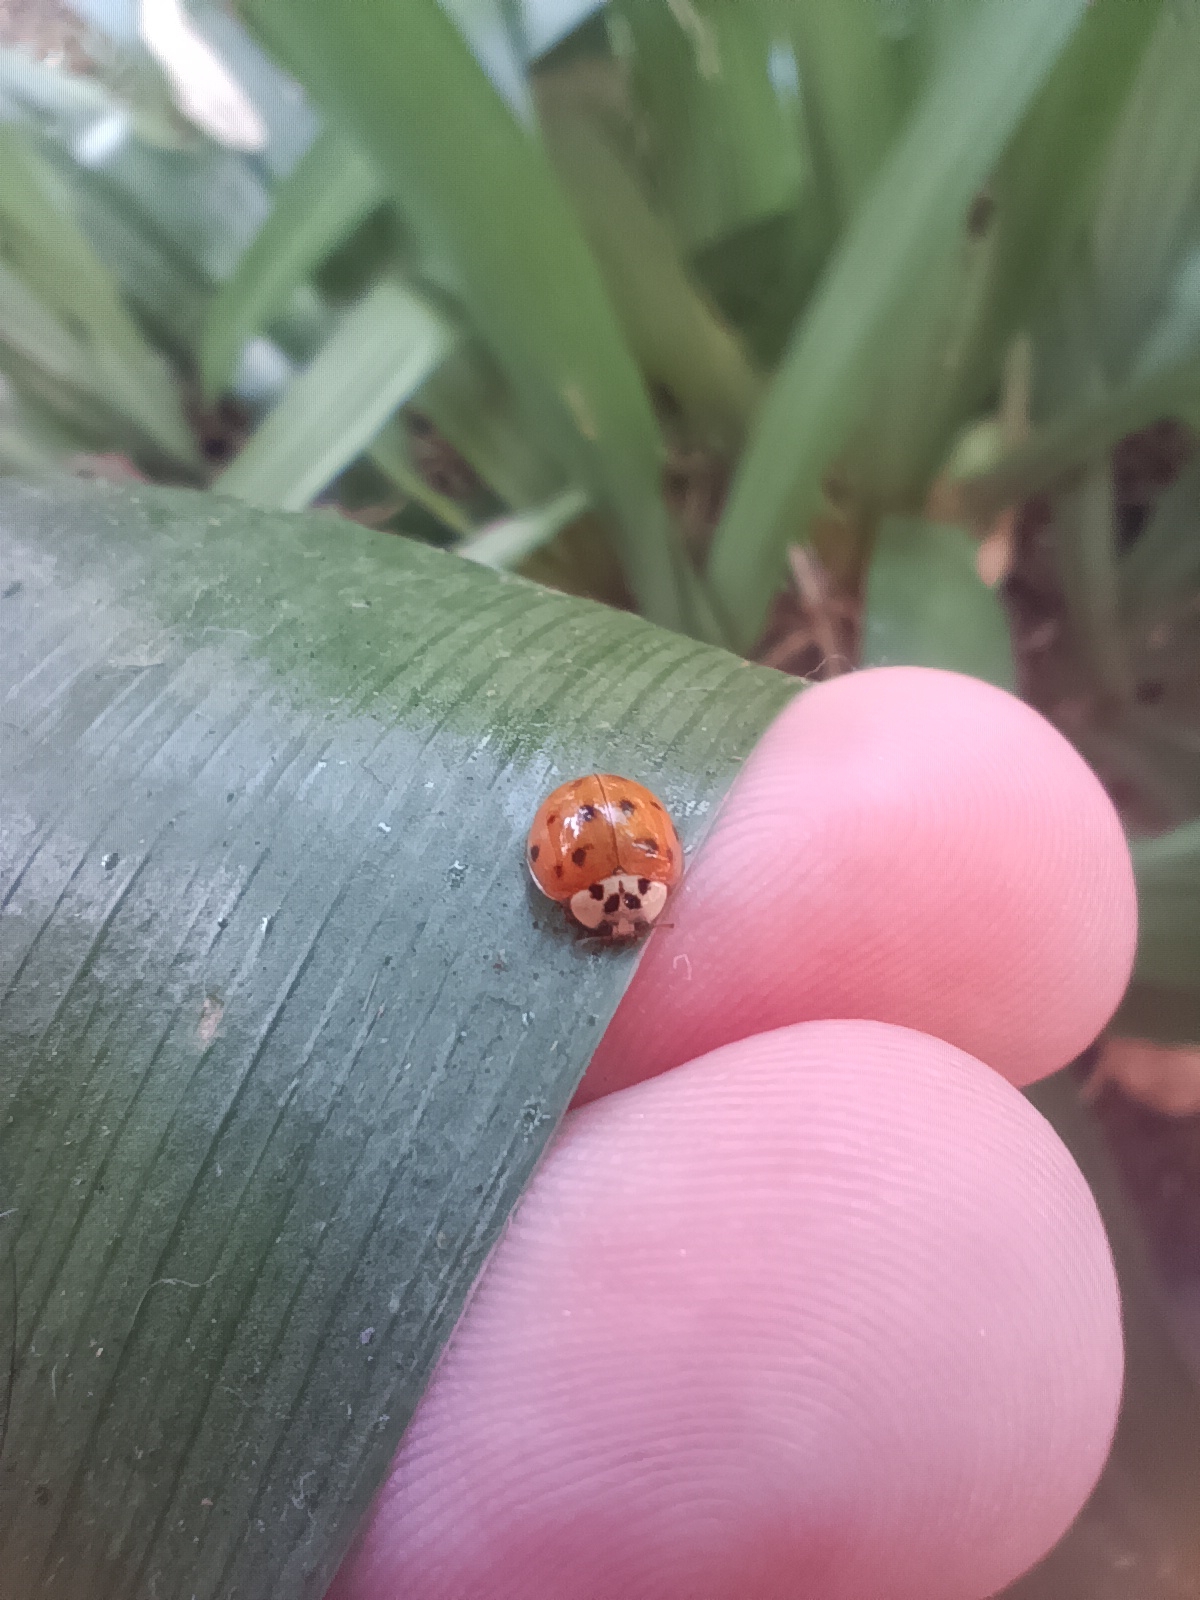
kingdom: Animalia
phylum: Arthropoda
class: Insecta
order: Coleoptera
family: Coccinellidae
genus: Harmonia
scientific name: Harmonia axyridis
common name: Harlequin ladybird
